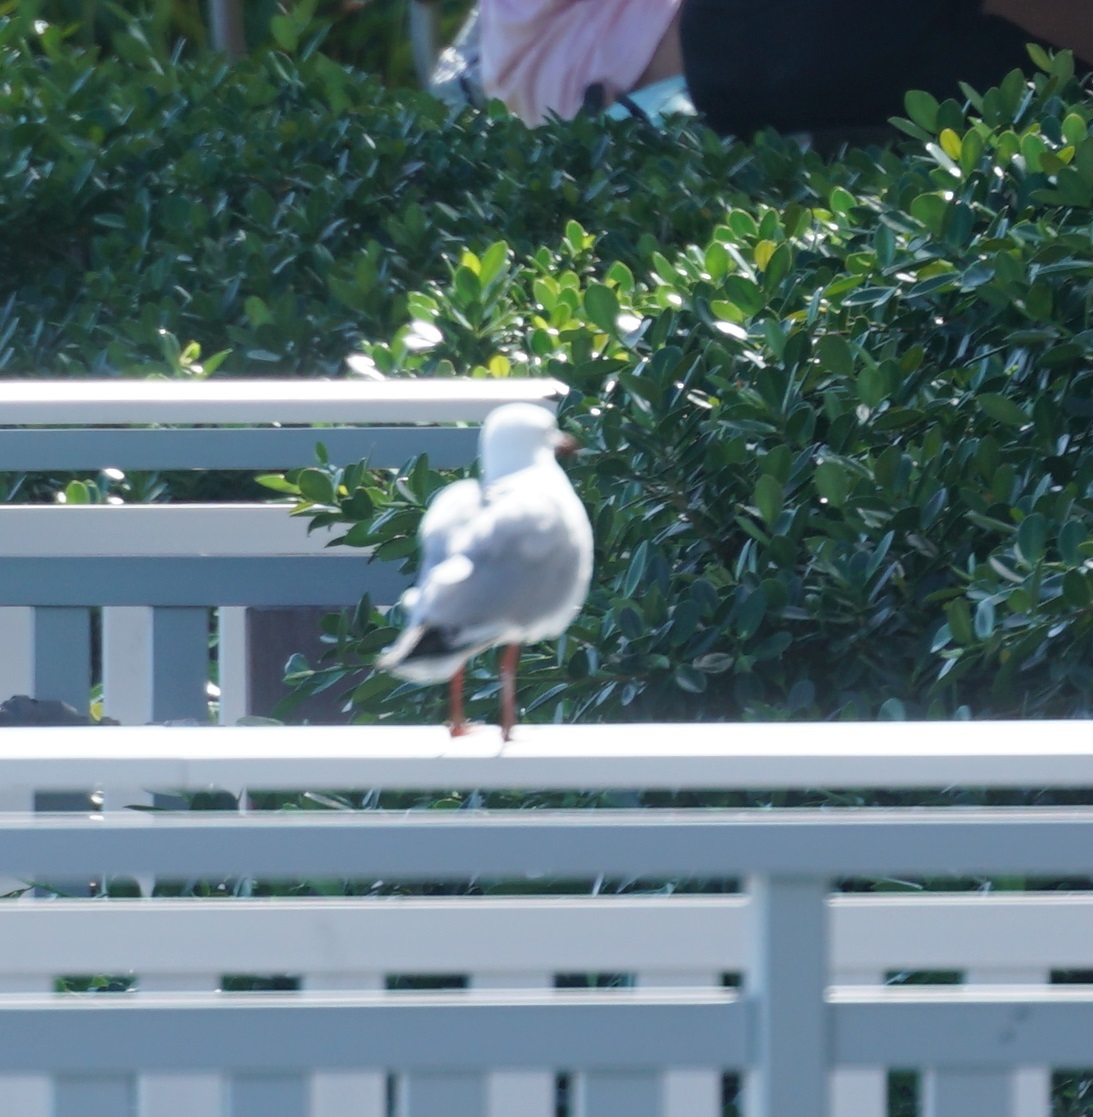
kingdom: Animalia
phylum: Chordata
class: Aves
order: Charadriiformes
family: Laridae
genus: Chroicocephalus
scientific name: Chroicocephalus novaehollandiae
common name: Silver gull
